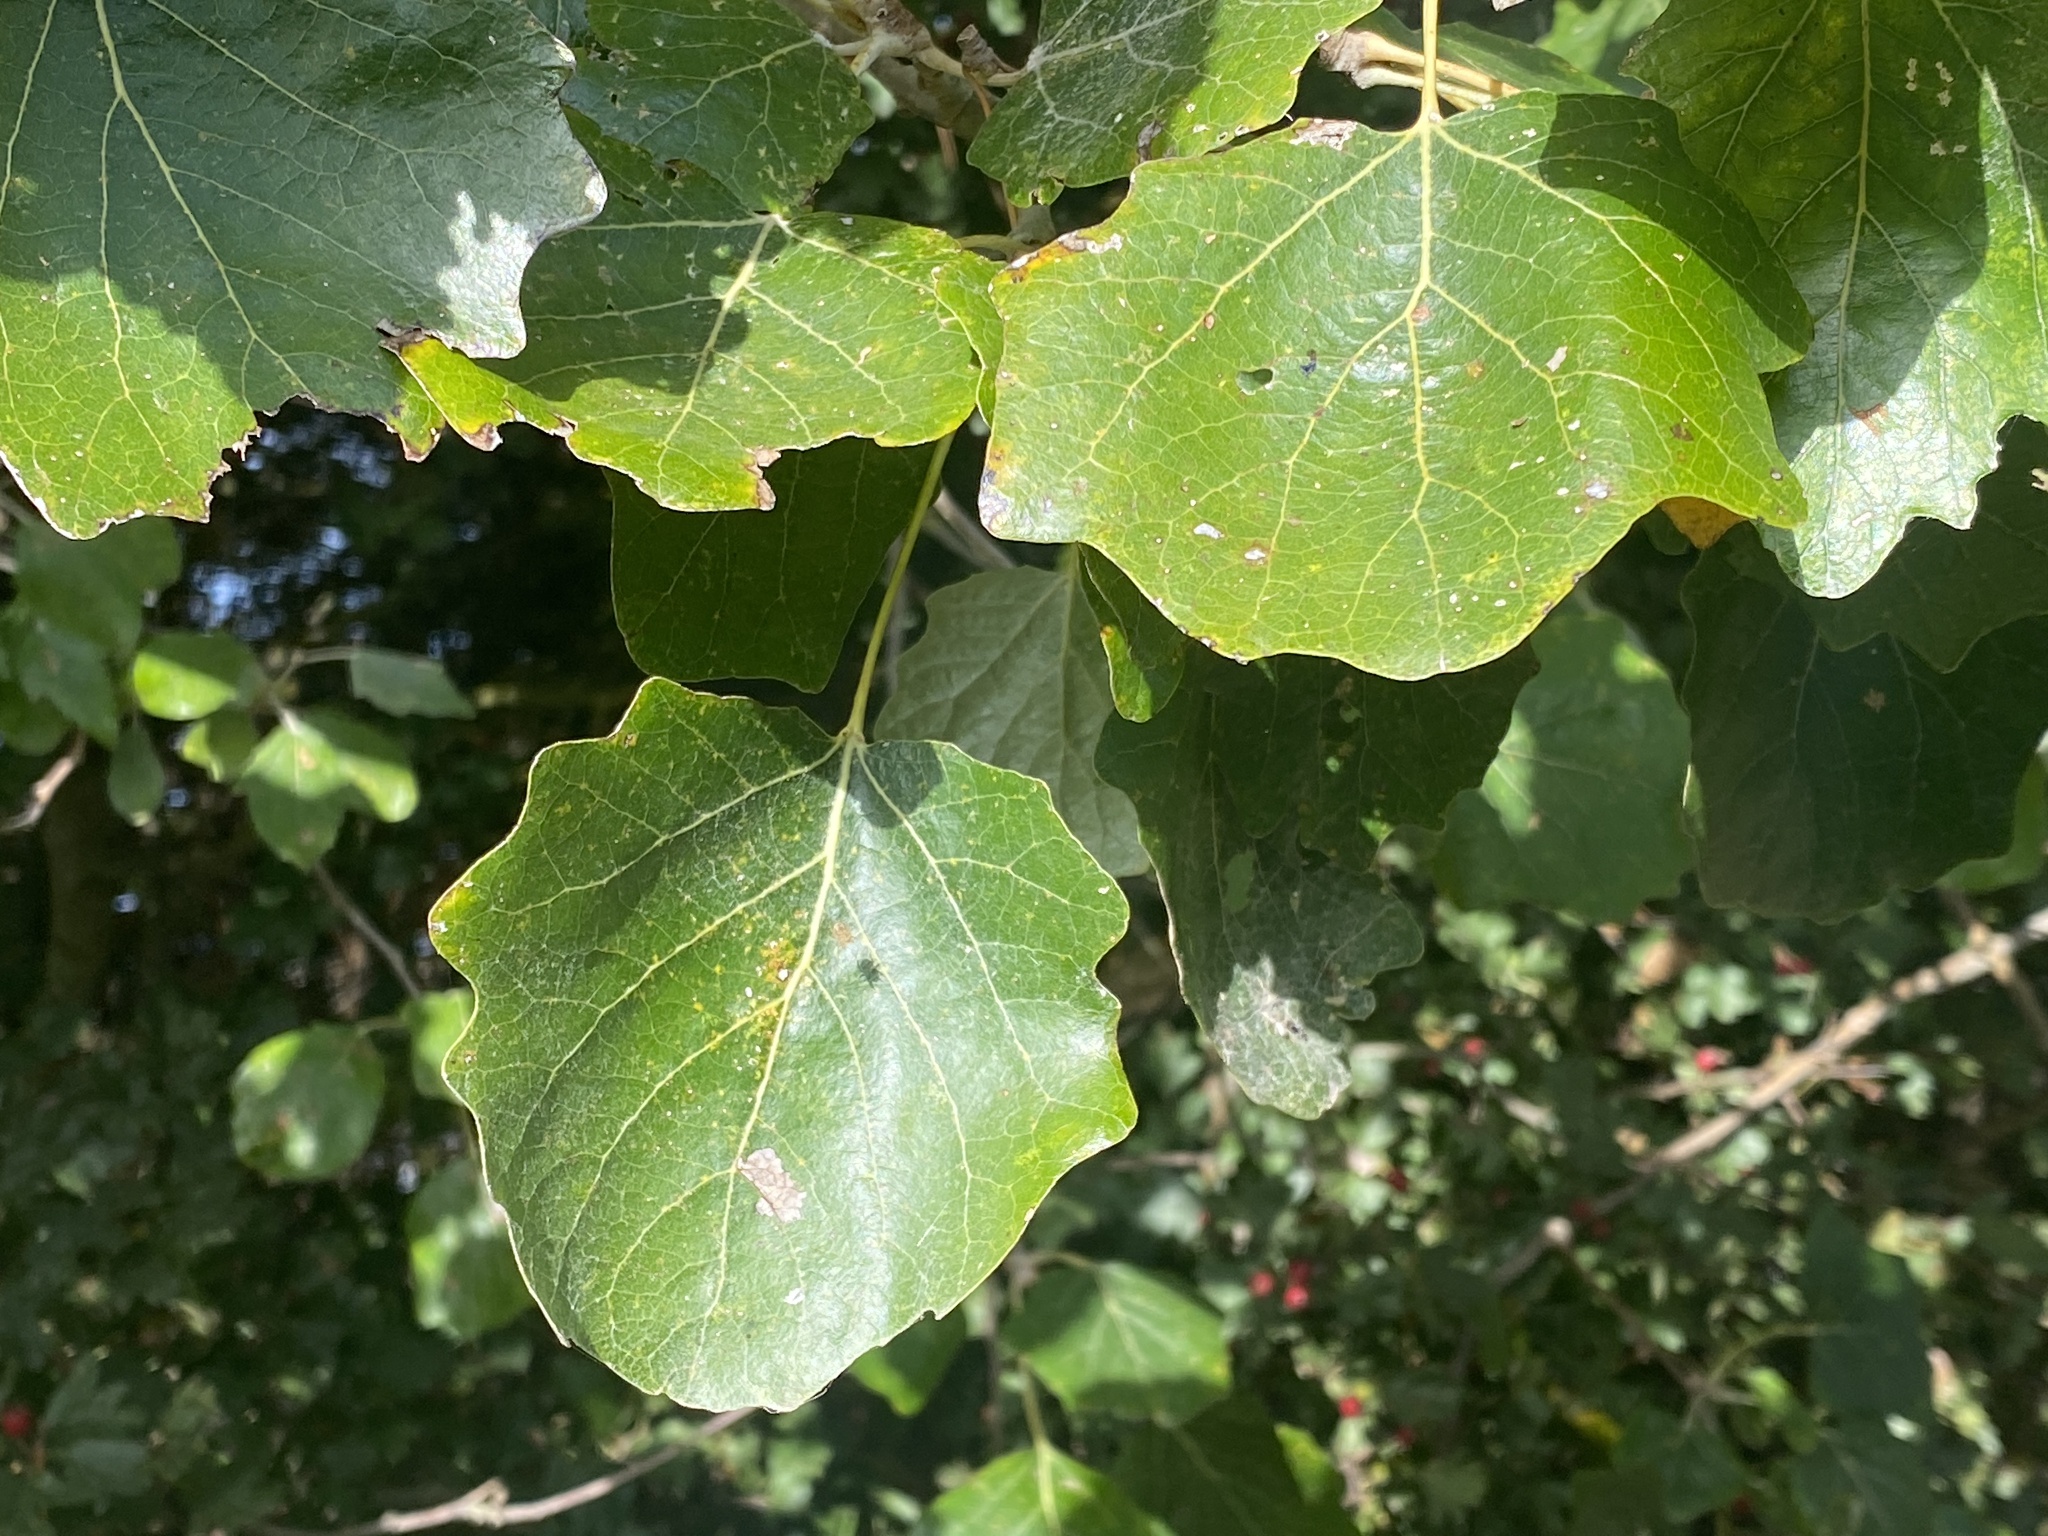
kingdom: Plantae
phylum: Tracheophyta
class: Magnoliopsida
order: Malpighiales
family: Salicaceae
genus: Populus
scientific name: Populus alba
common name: White poplar
